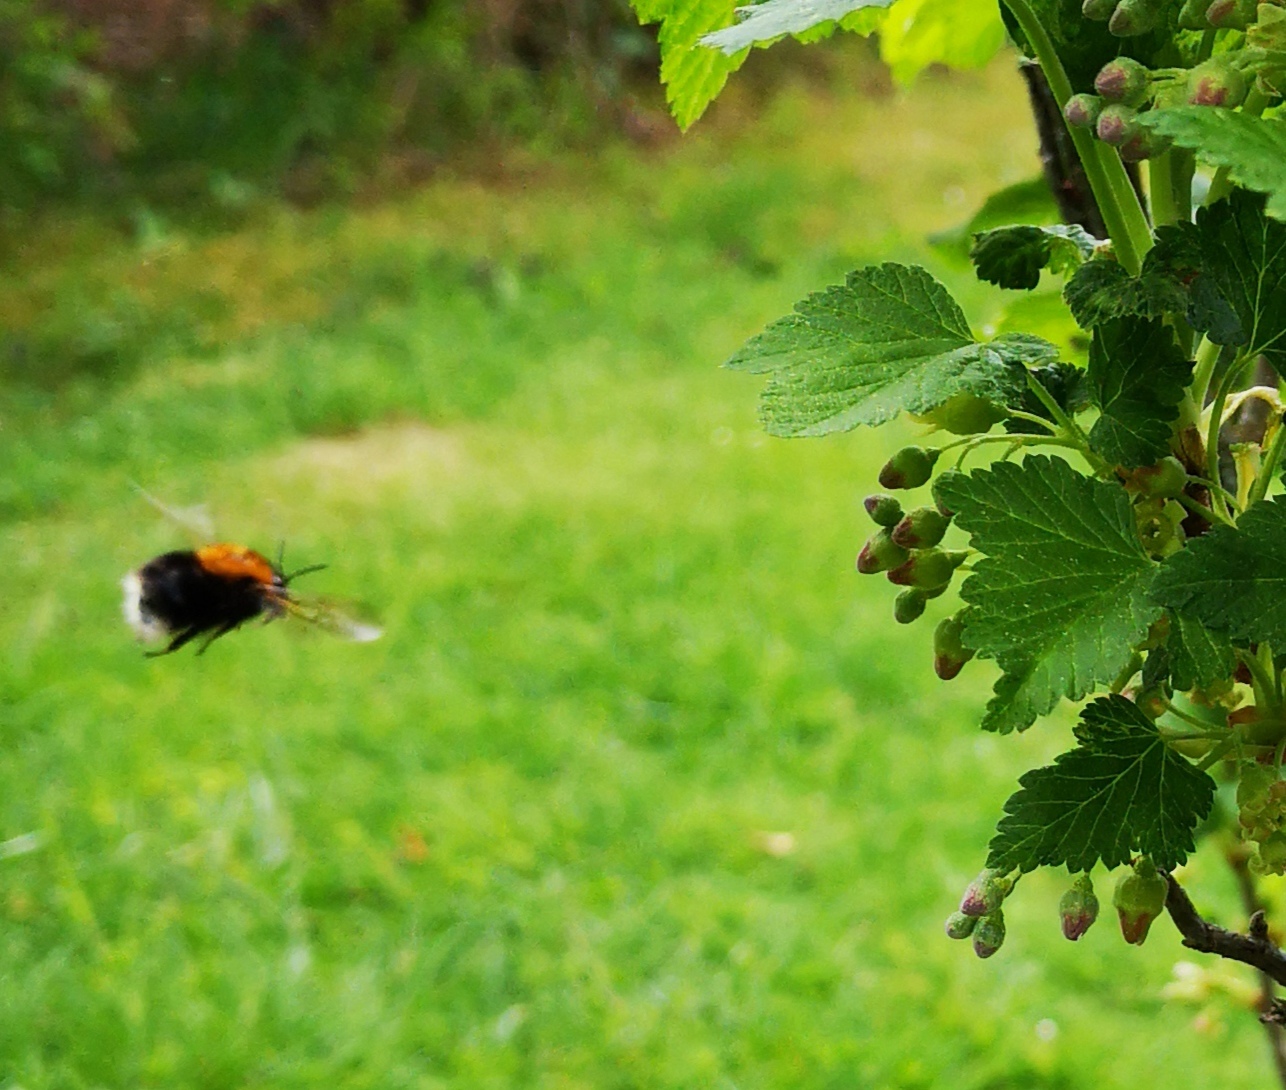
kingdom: Animalia
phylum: Arthropoda
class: Insecta
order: Hymenoptera
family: Apidae
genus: Bombus
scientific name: Bombus hypnorum
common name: New garden bumblebee
